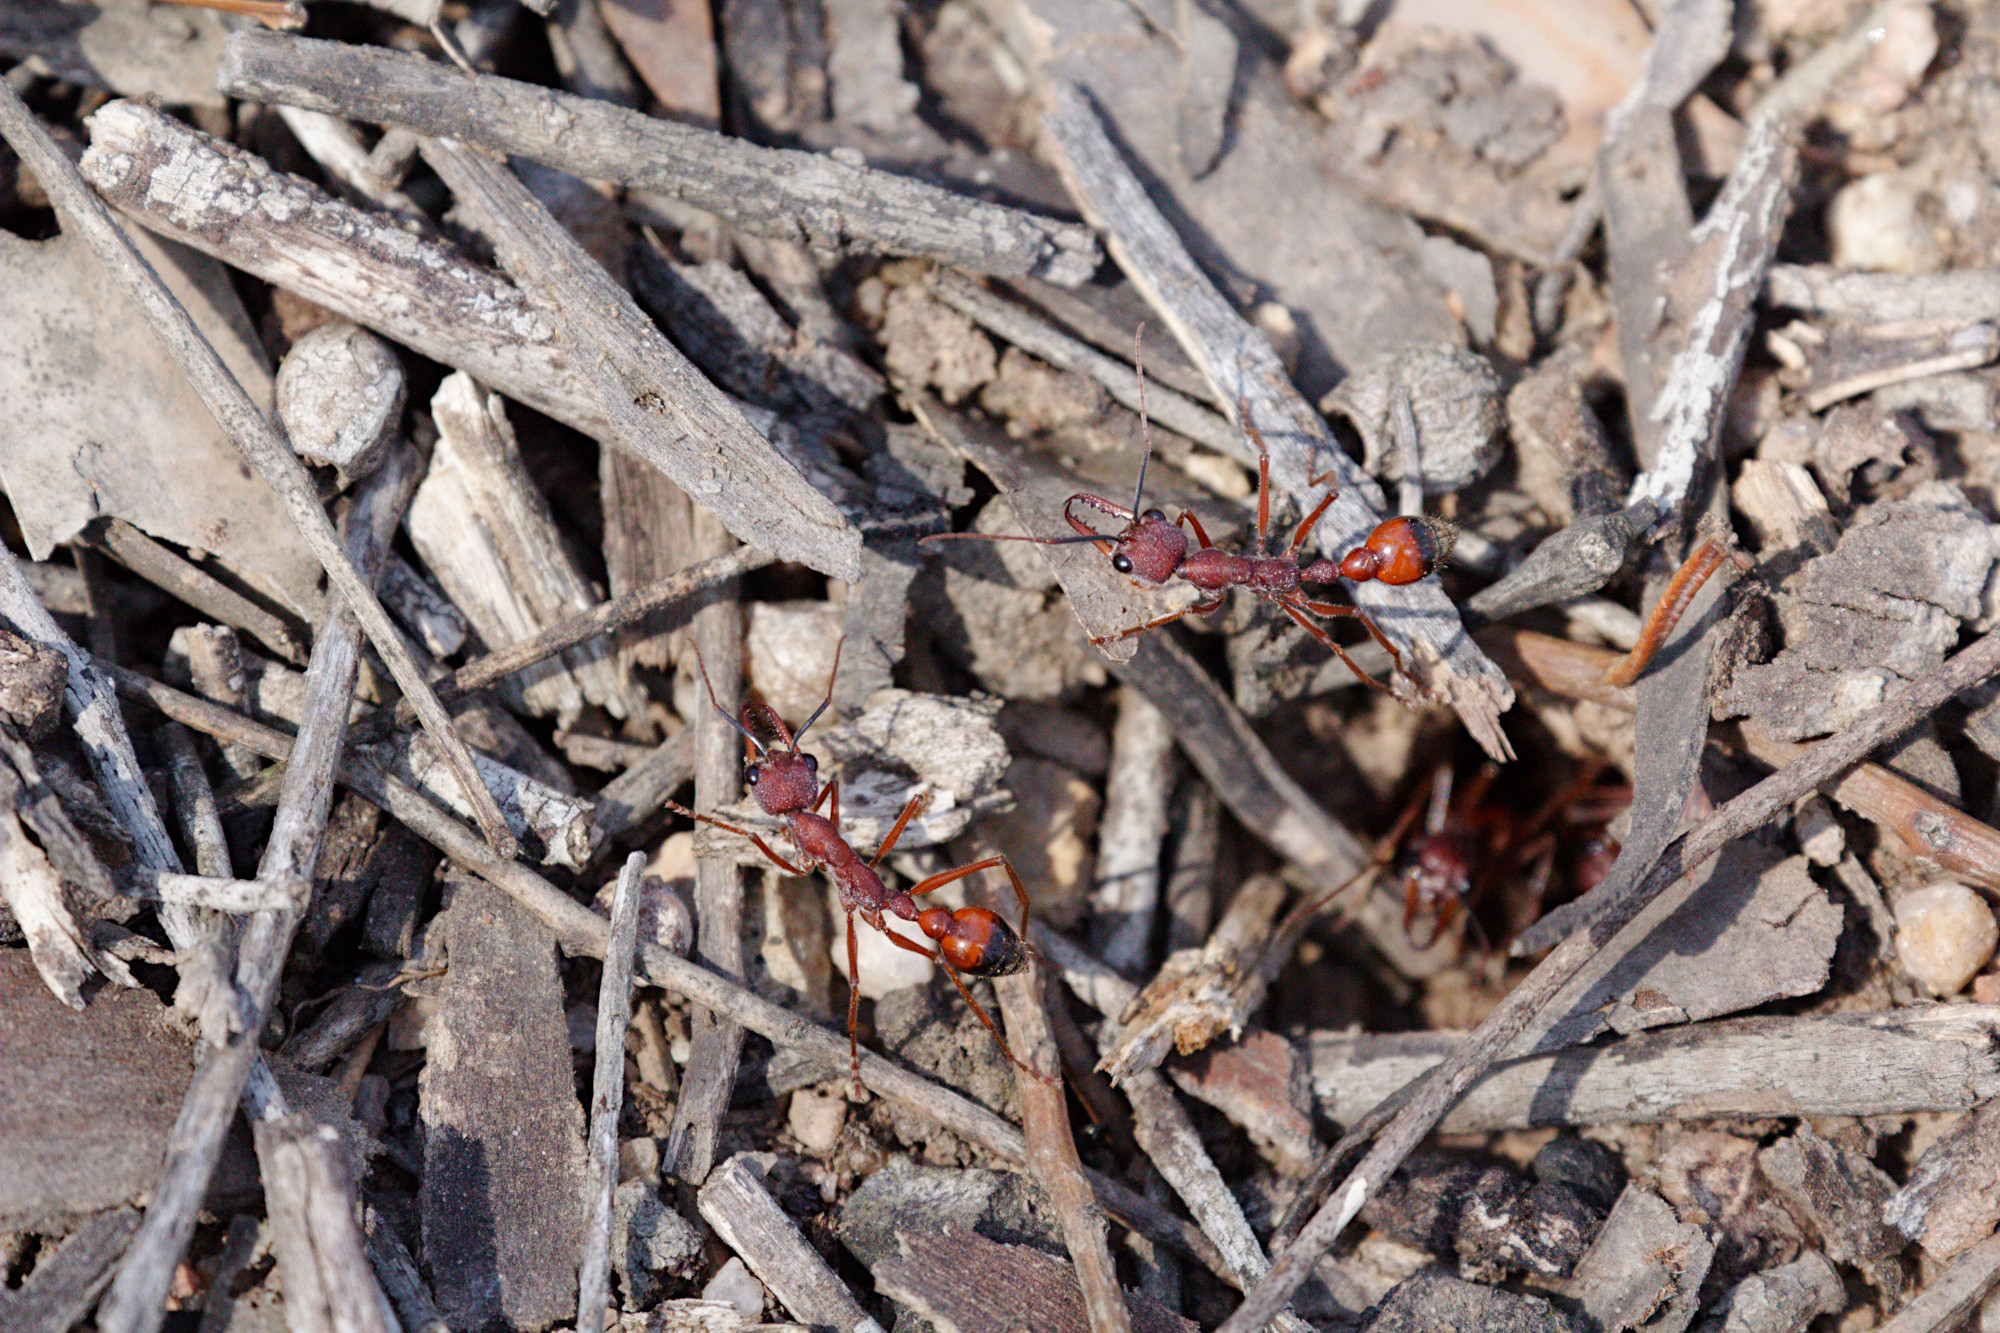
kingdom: Animalia
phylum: Arthropoda
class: Insecta
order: Hymenoptera
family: Formicidae
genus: Myrmecia
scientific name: Myrmecia nigriscapa
